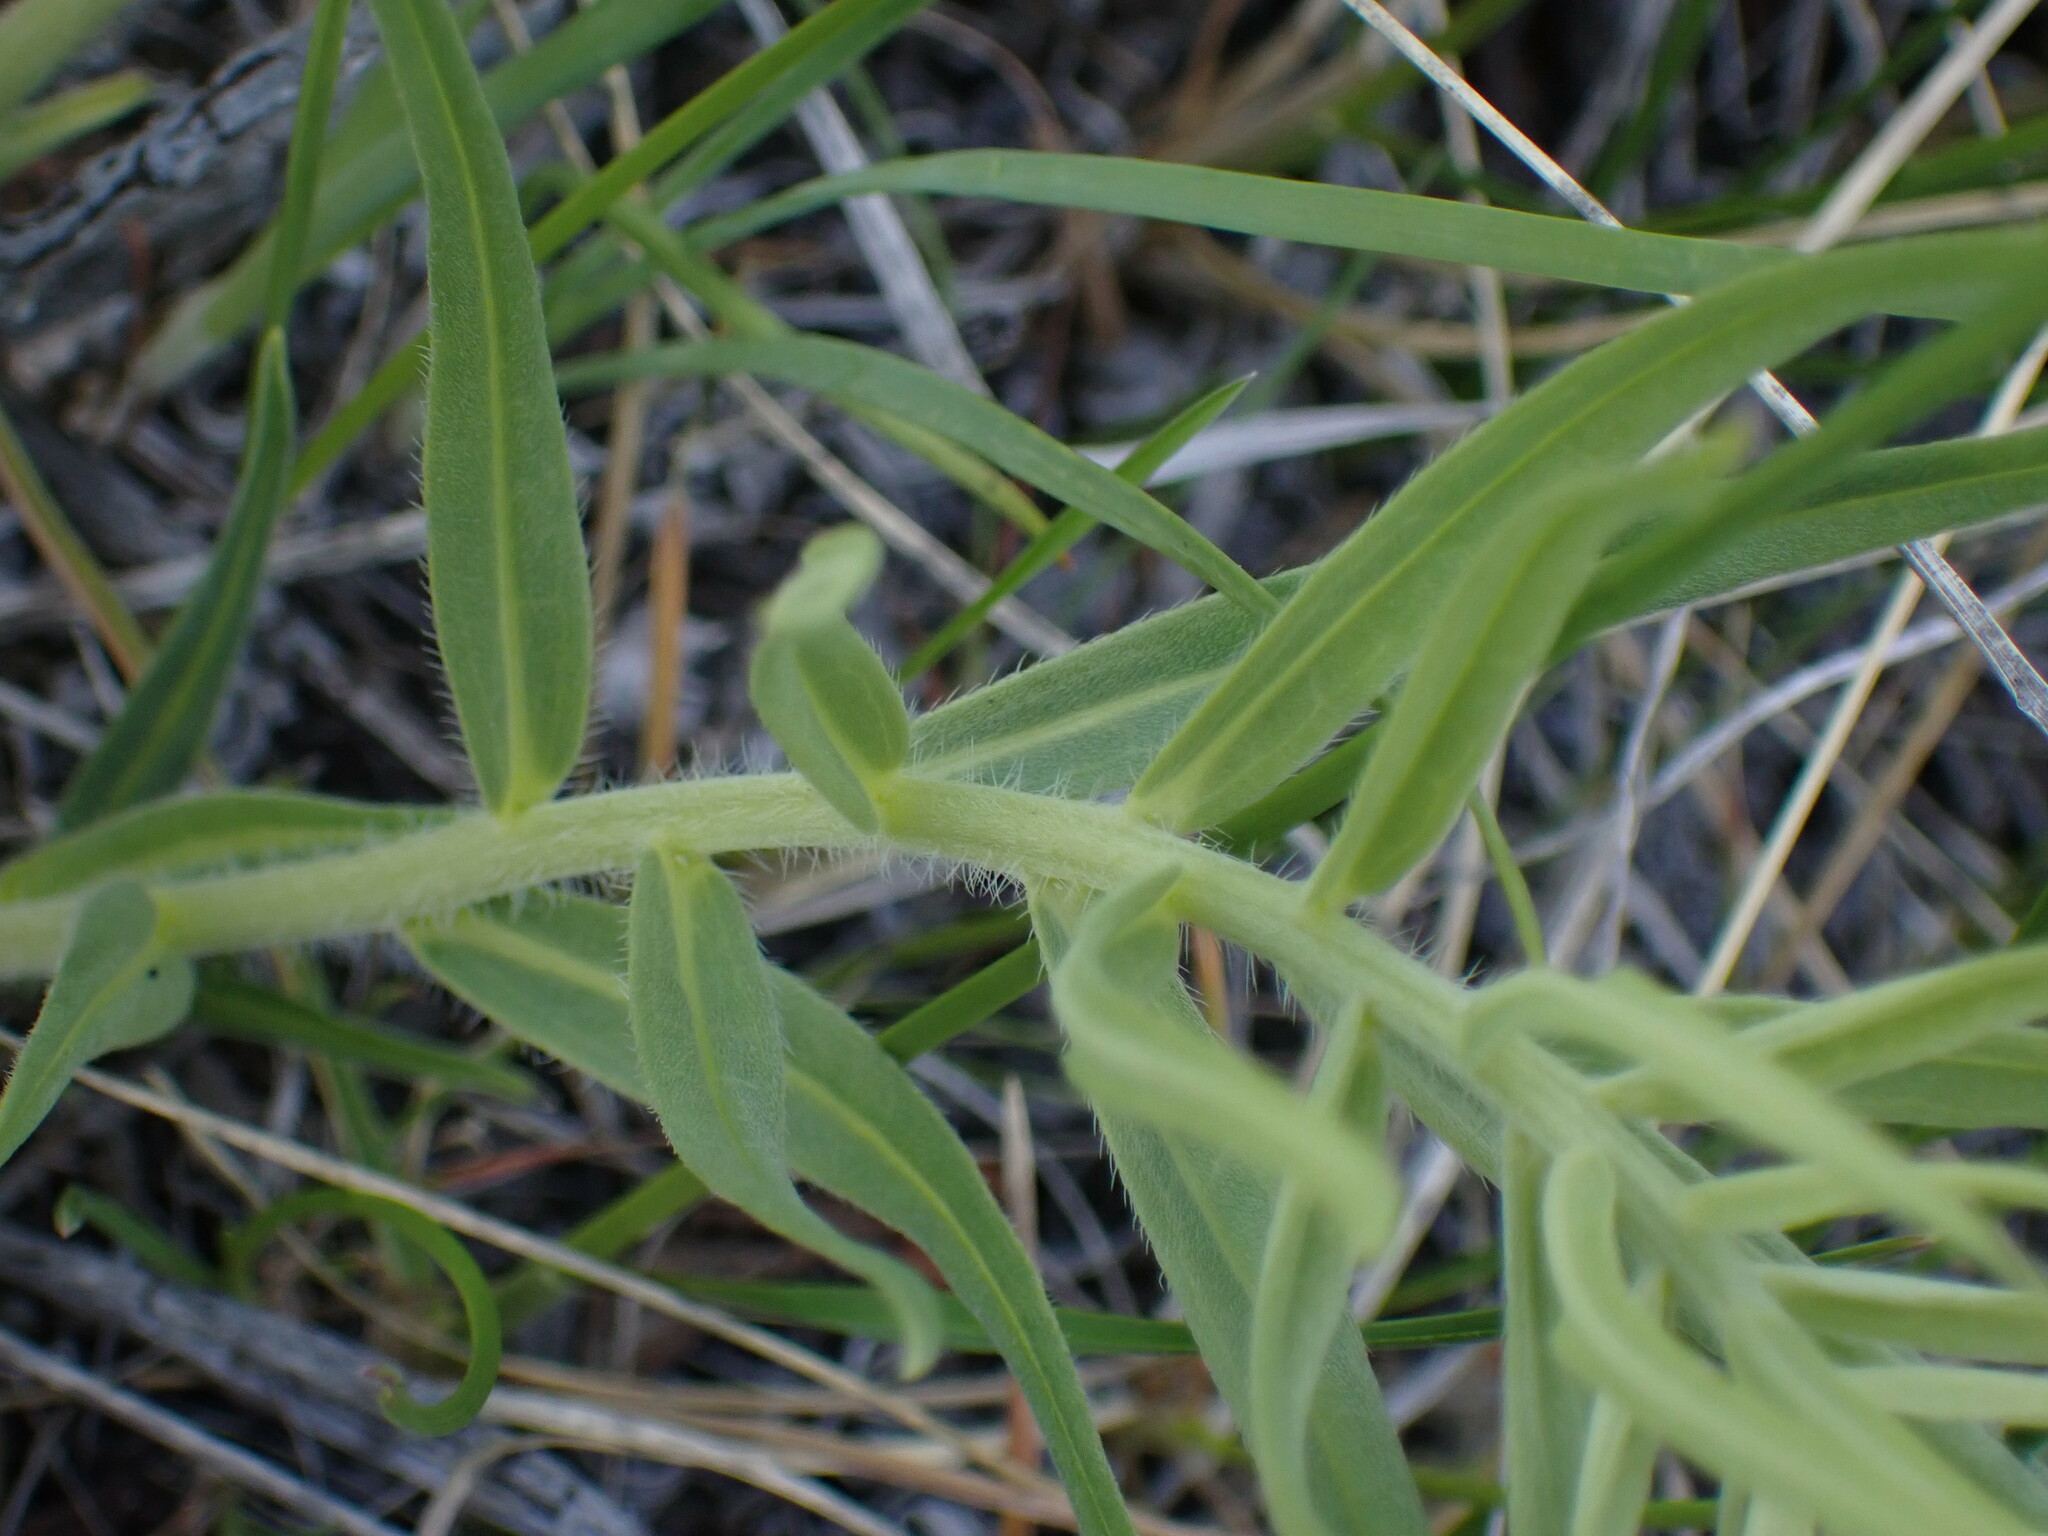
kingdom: Plantae
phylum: Tracheophyta
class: Magnoliopsida
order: Boraginales
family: Boraginaceae
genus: Lithospermum
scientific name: Lithospermum ruderale
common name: Western gromwell
